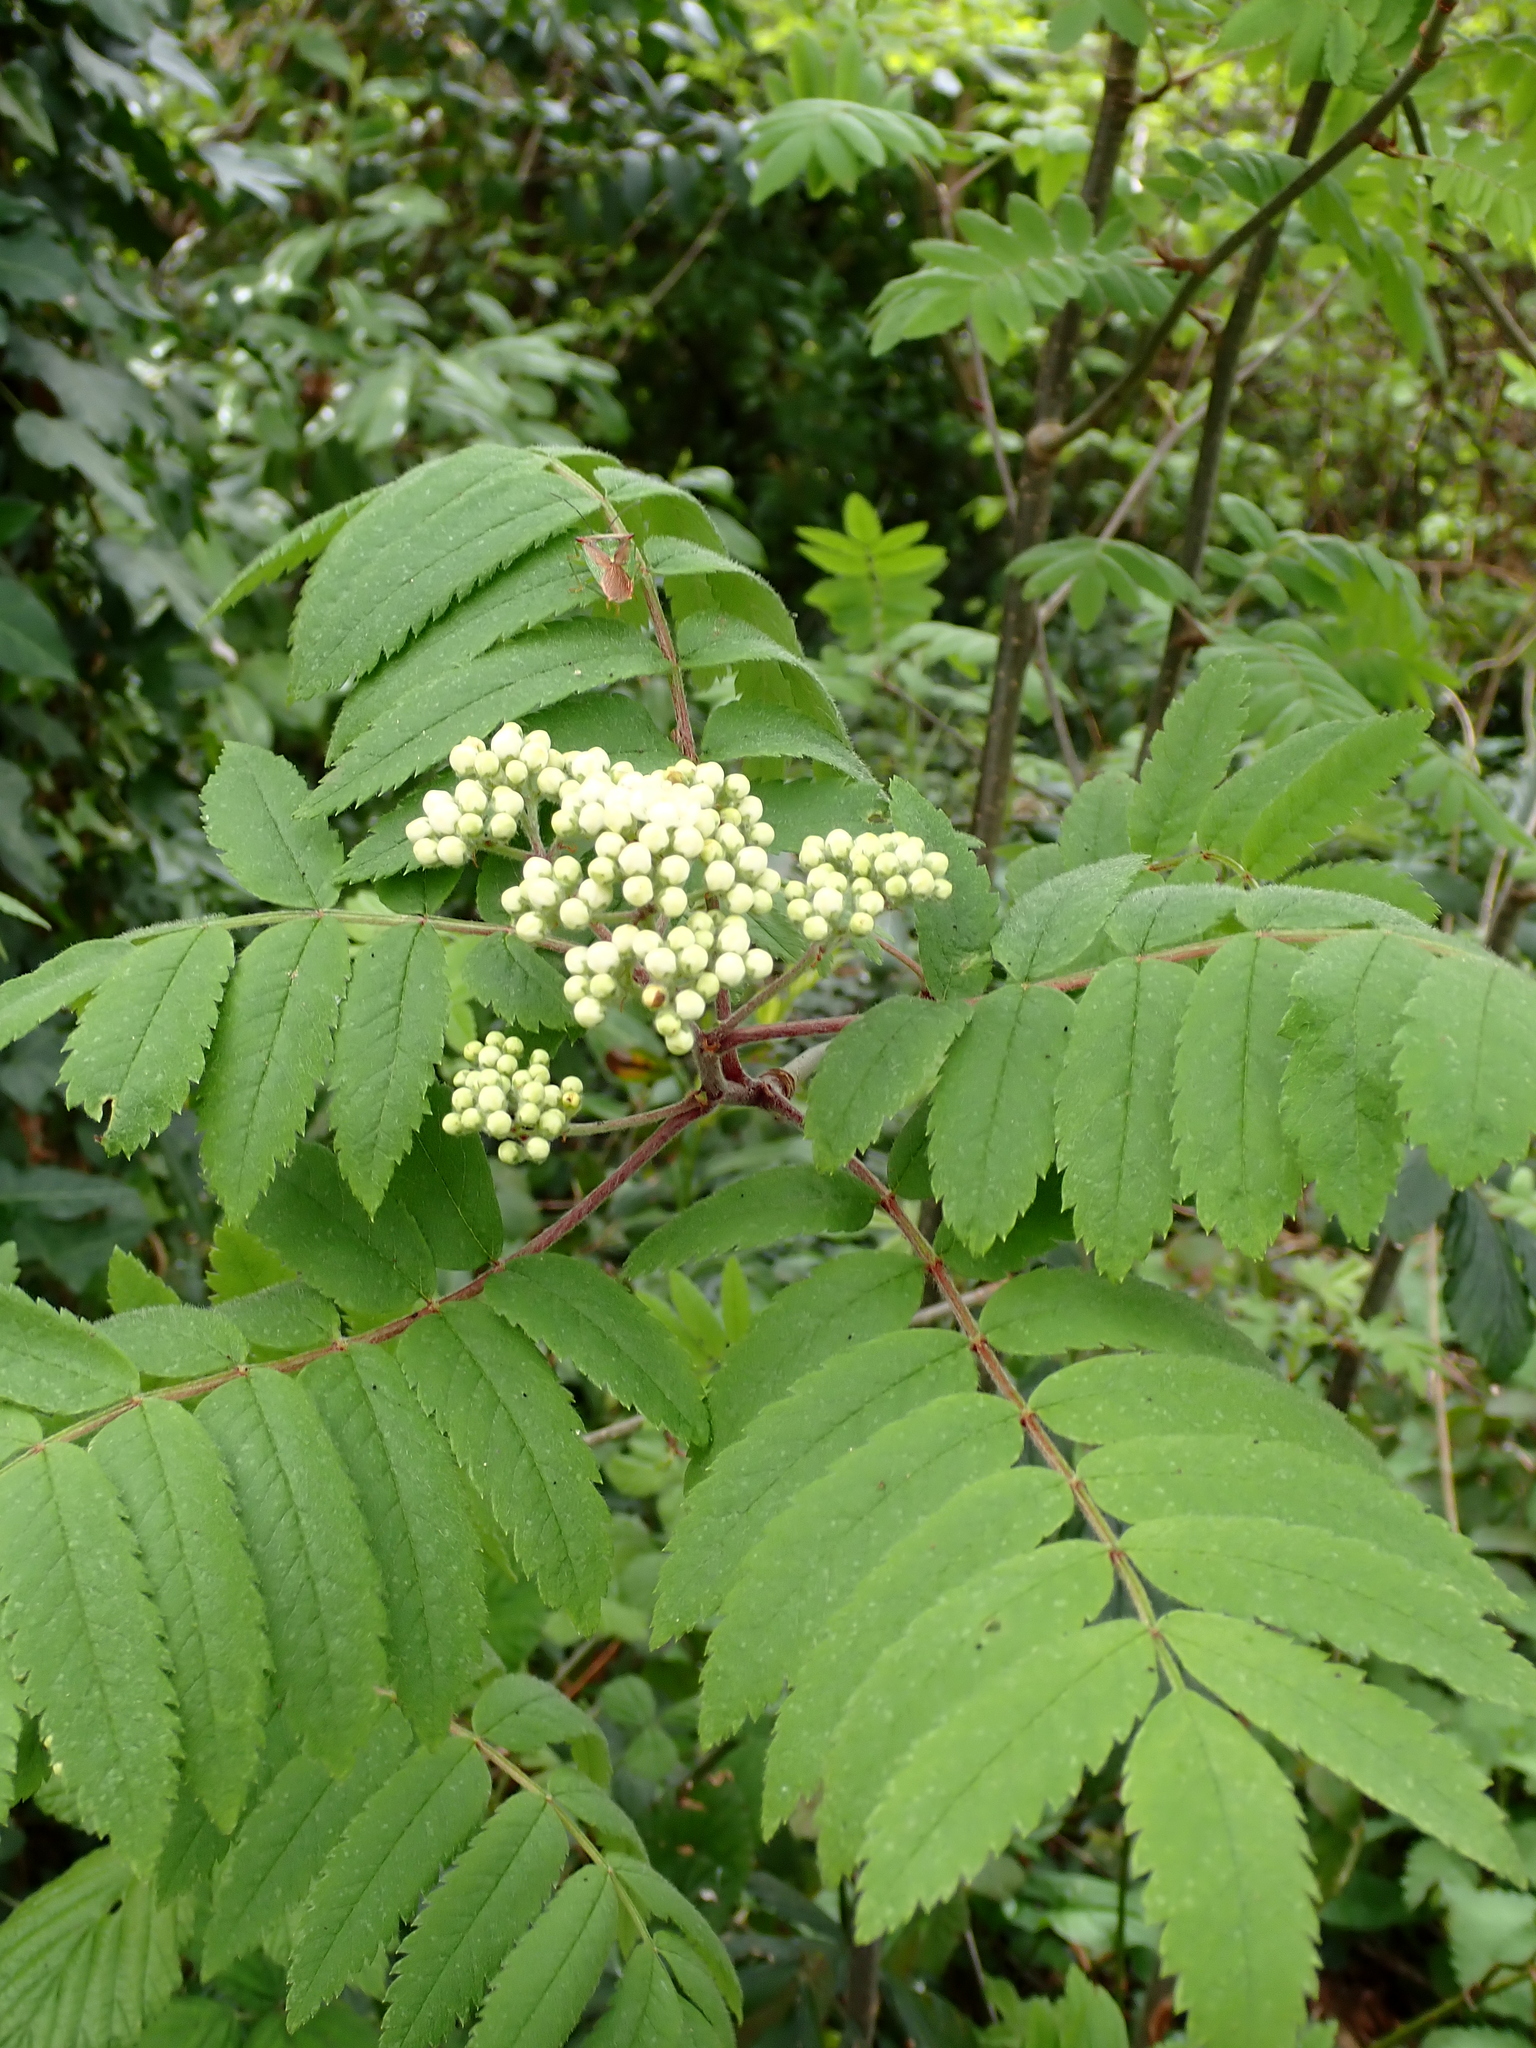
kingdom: Plantae
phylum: Tracheophyta
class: Magnoliopsida
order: Rosales
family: Rosaceae
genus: Sorbus
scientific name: Sorbus aucuparia
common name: Rowan
